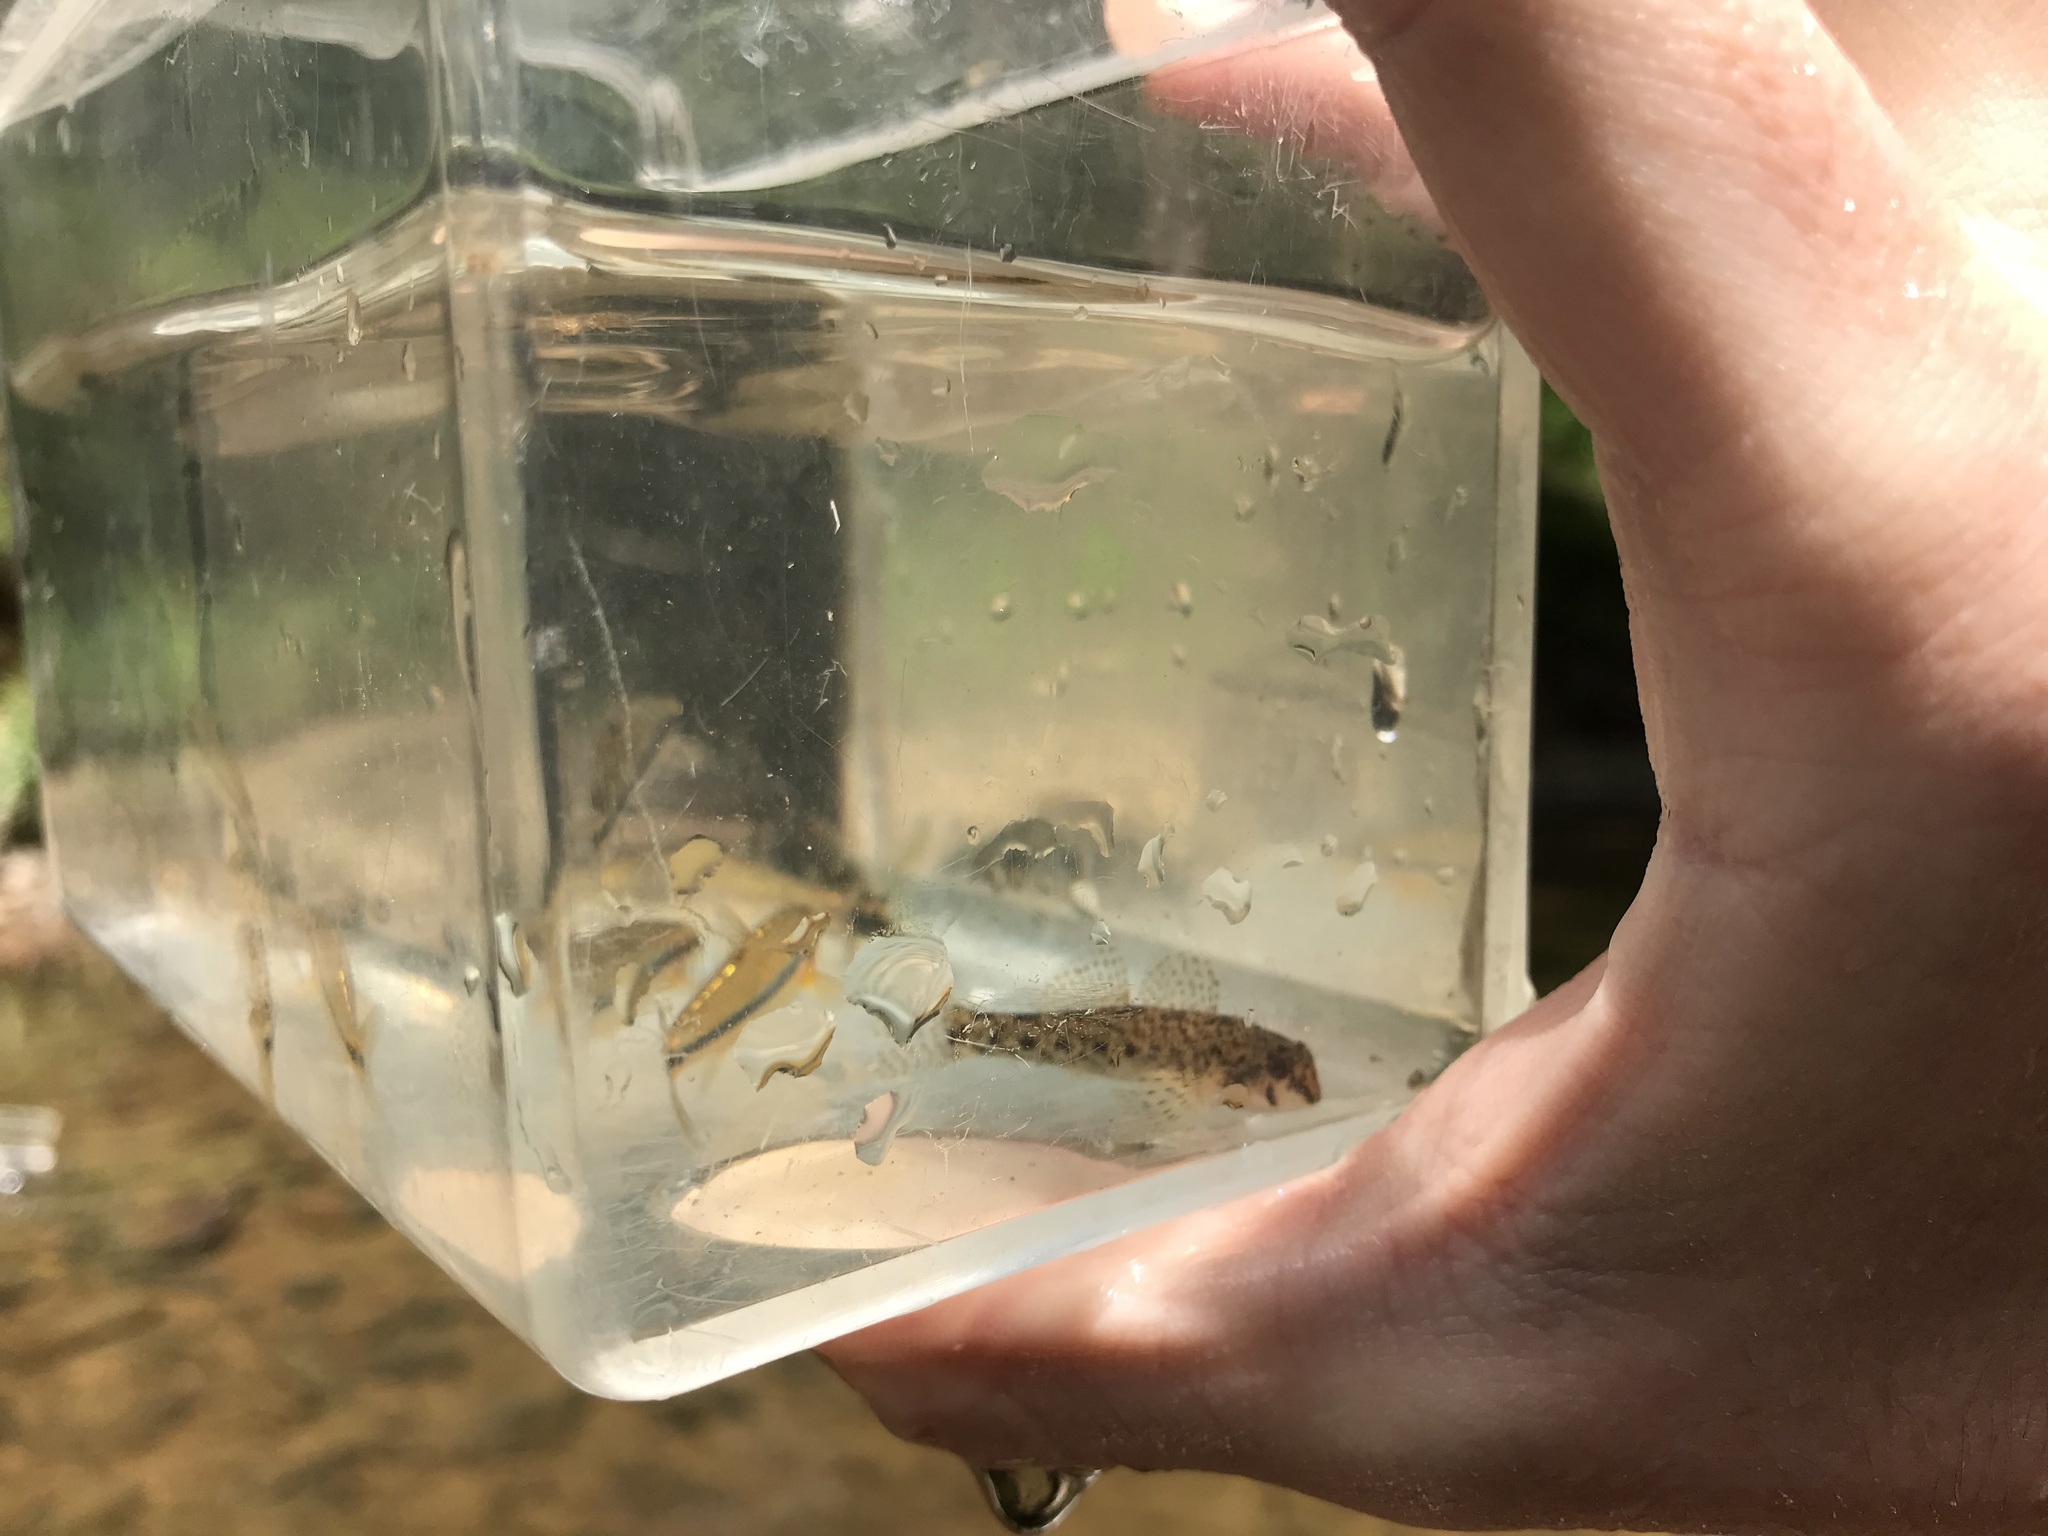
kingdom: Animalia
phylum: Chordata
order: Perciformes
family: Percidae
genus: Etheostoma
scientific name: Etheostoma olmstedi
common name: Tessellated darter
